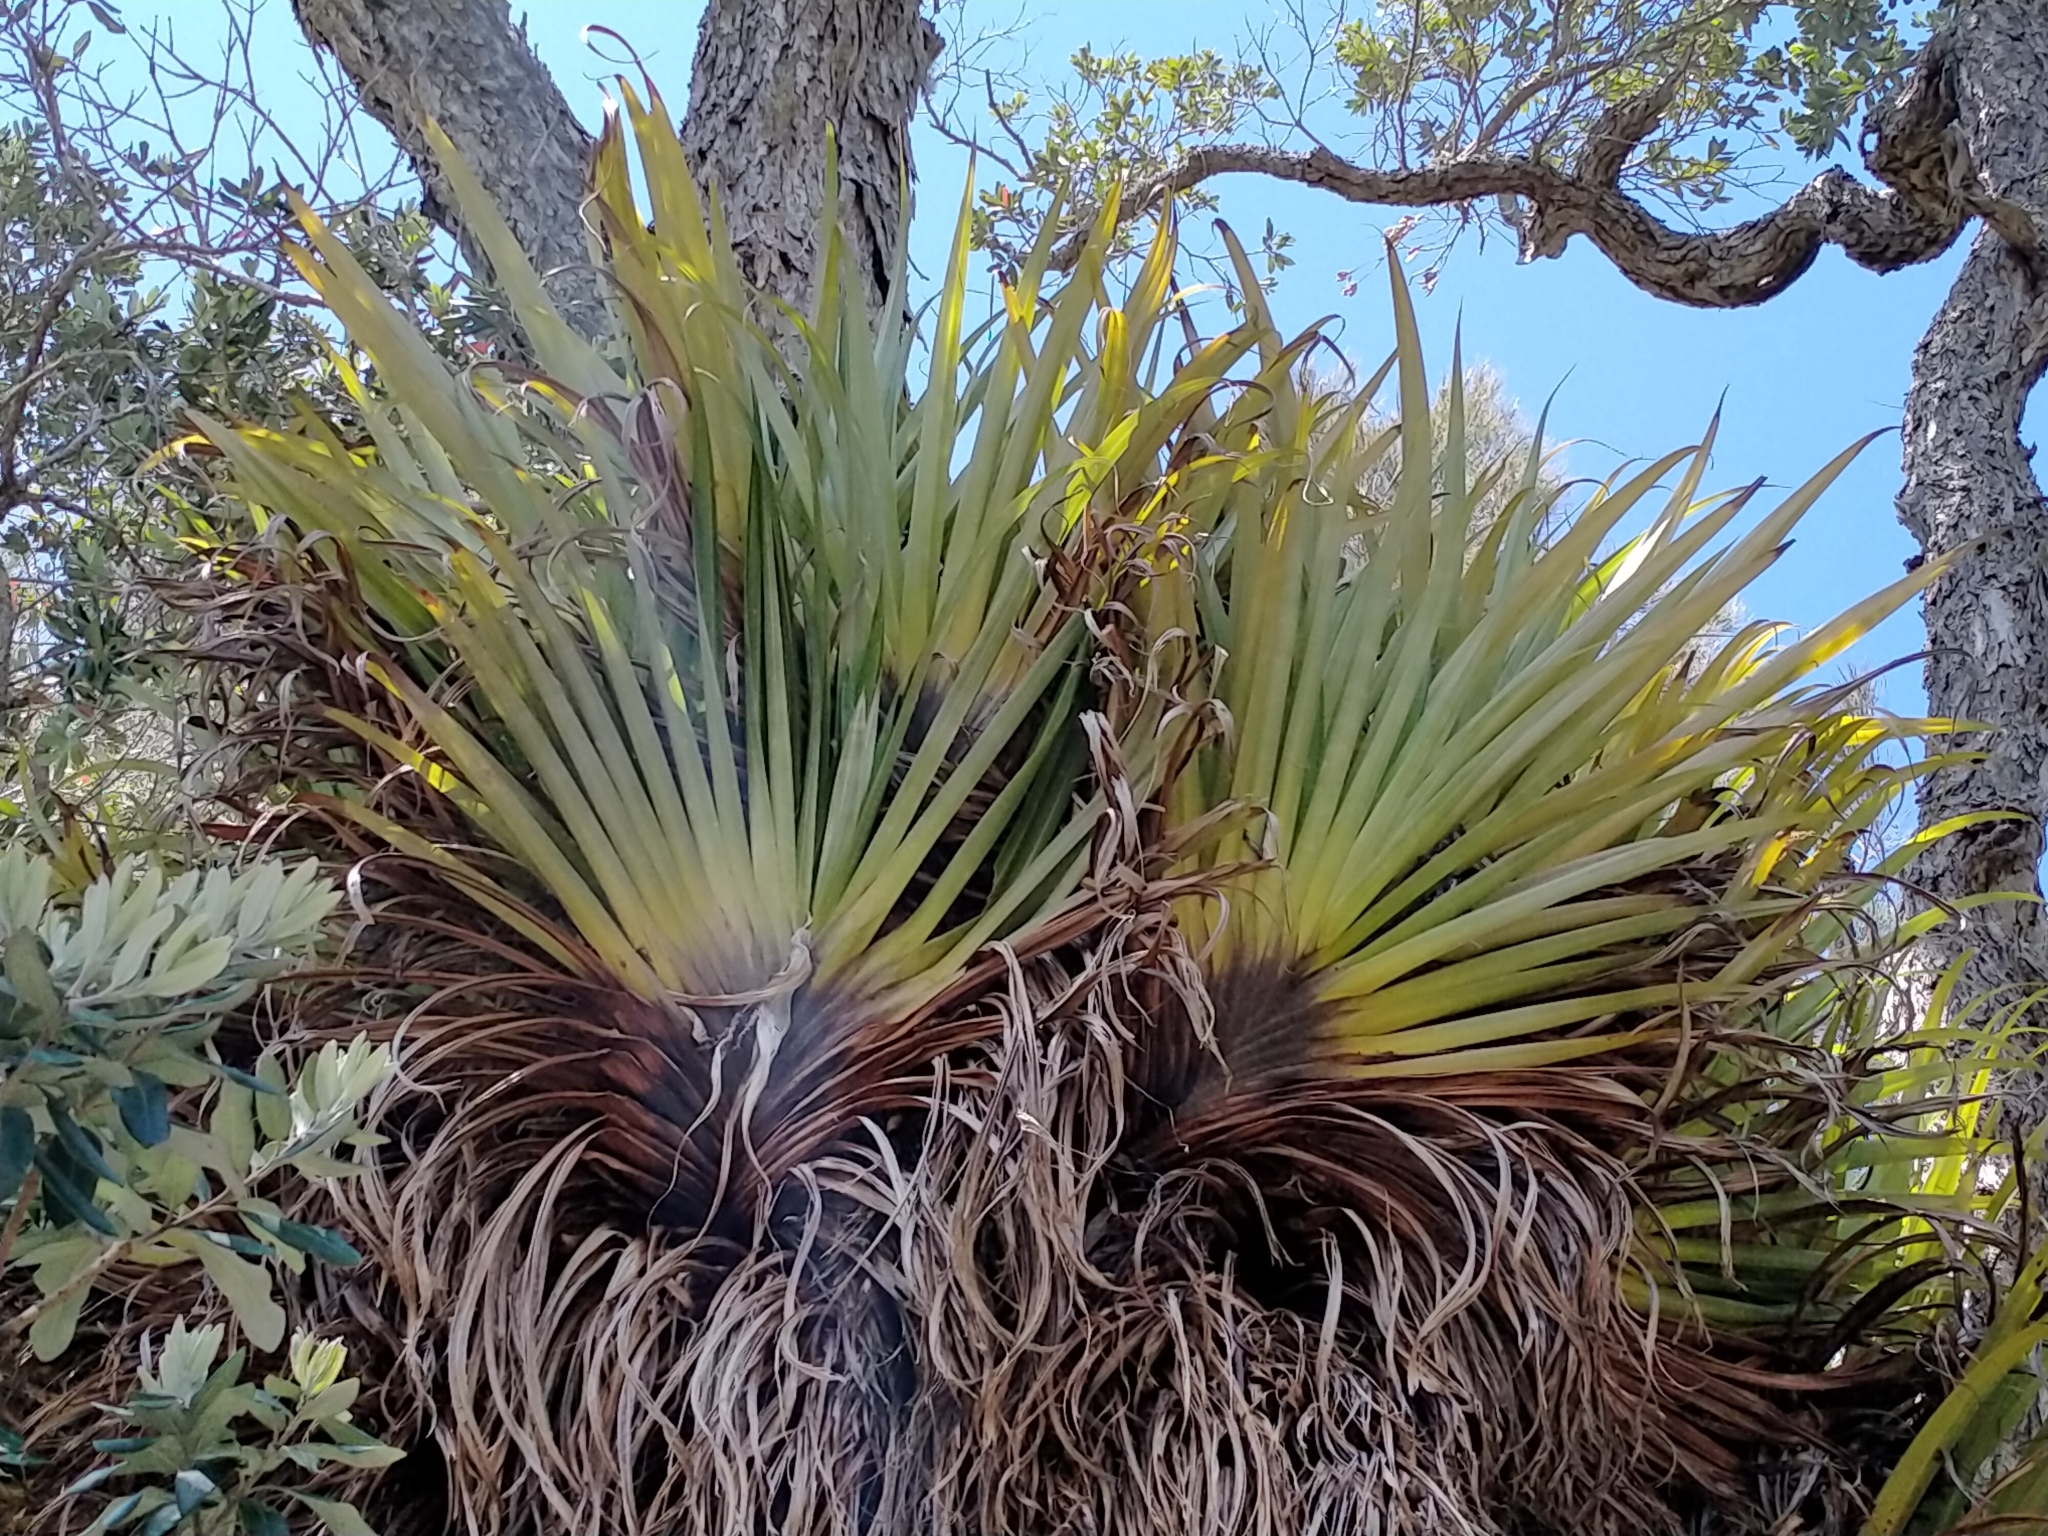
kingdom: Plantae
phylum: Tracheophyta
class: Liliopsida
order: Asparagales
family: Asteliaceae
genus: Astelia
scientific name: Astelia hastata
